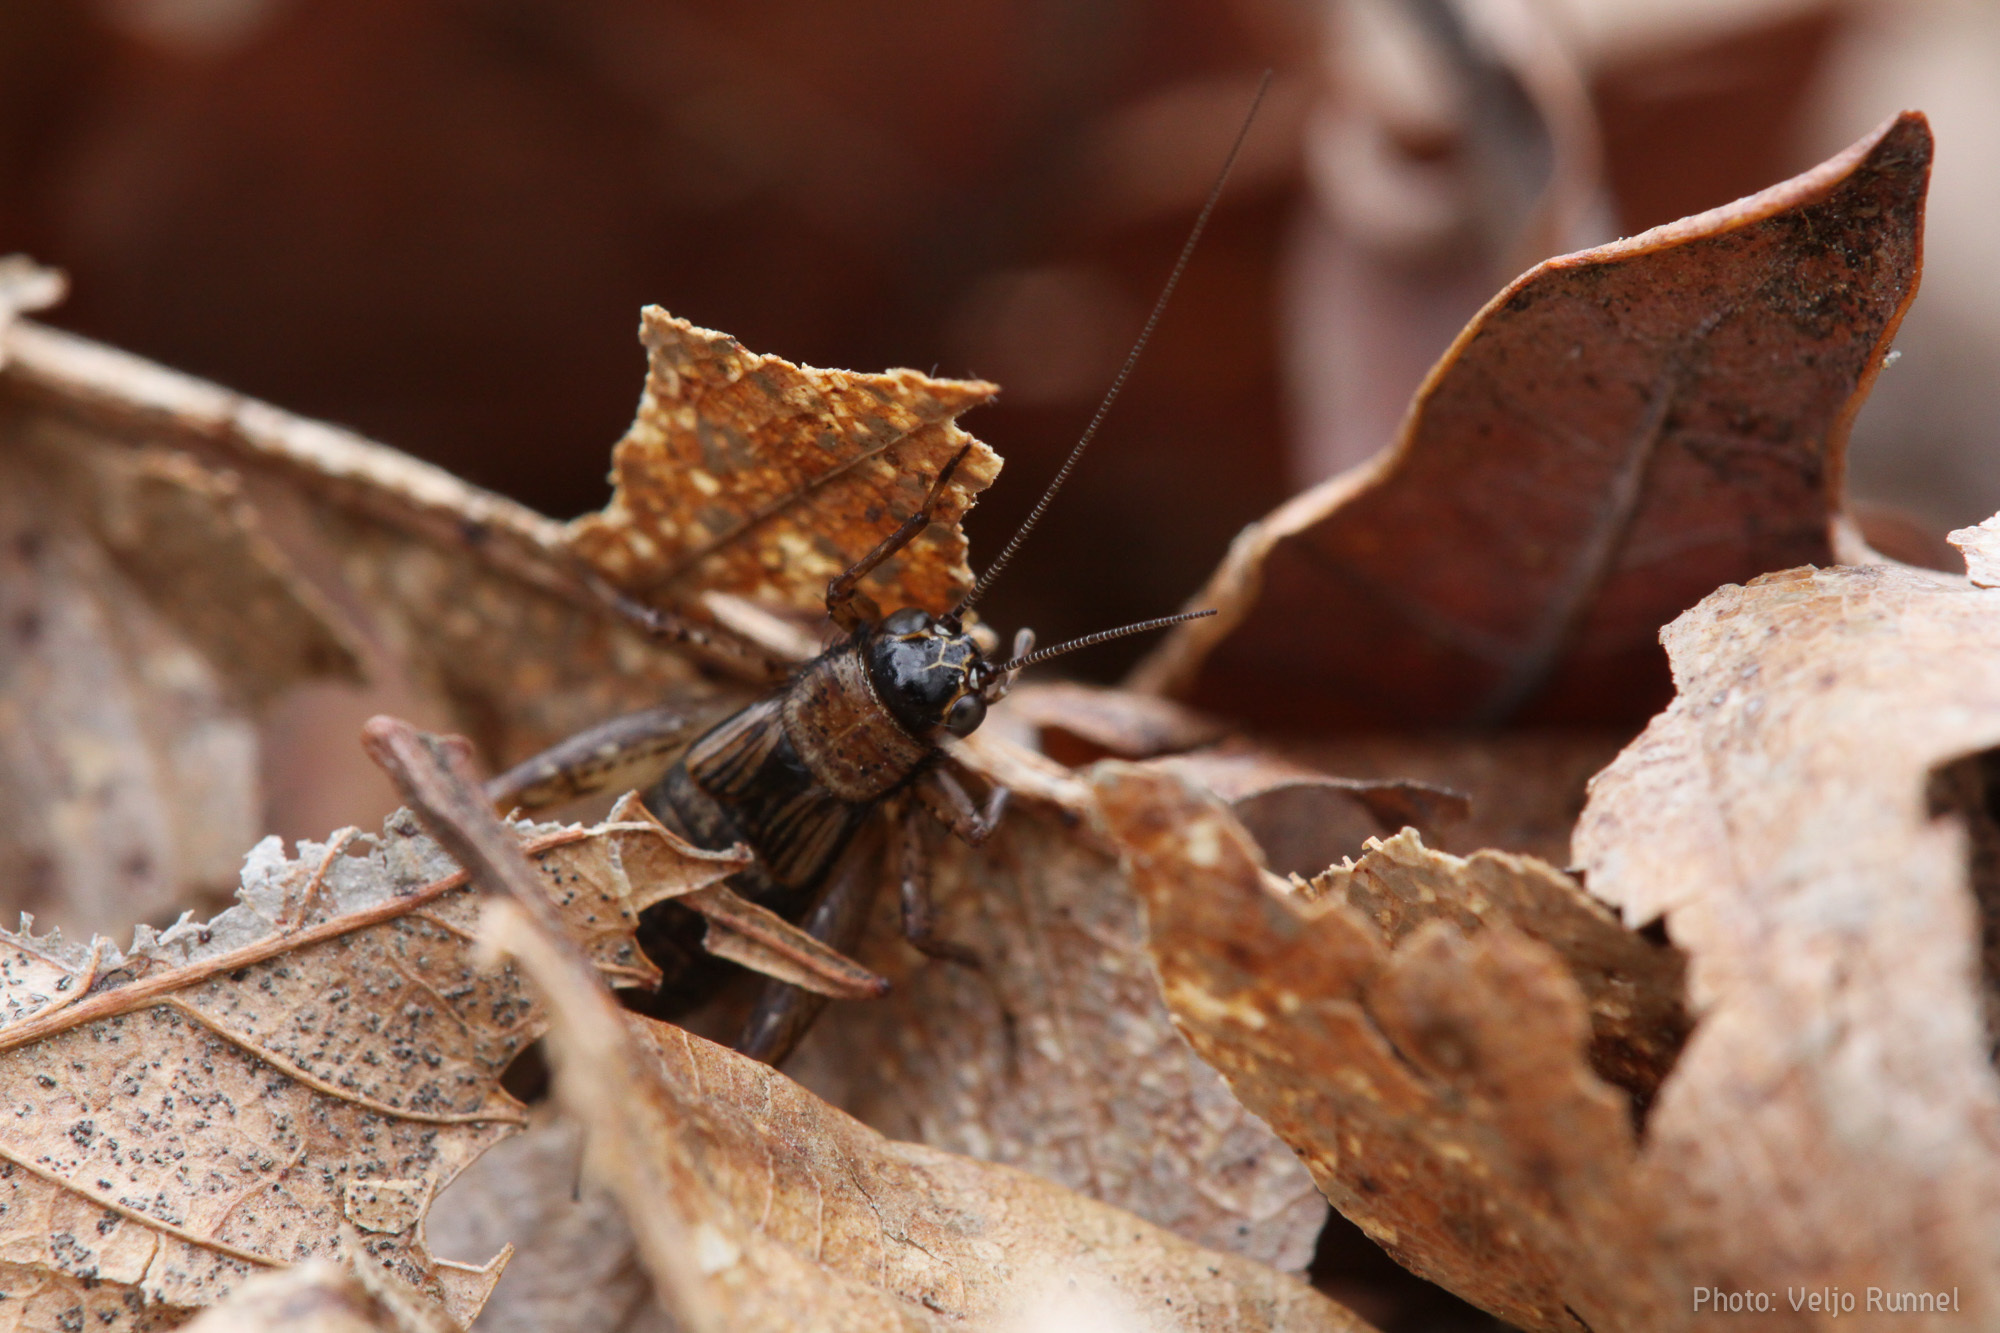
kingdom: Animalia
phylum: Arthropoda
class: Insecta
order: Orthoptera
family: Trigonidiidae
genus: Nemobius
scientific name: Nemobius sylvestris
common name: Wood-cricket
